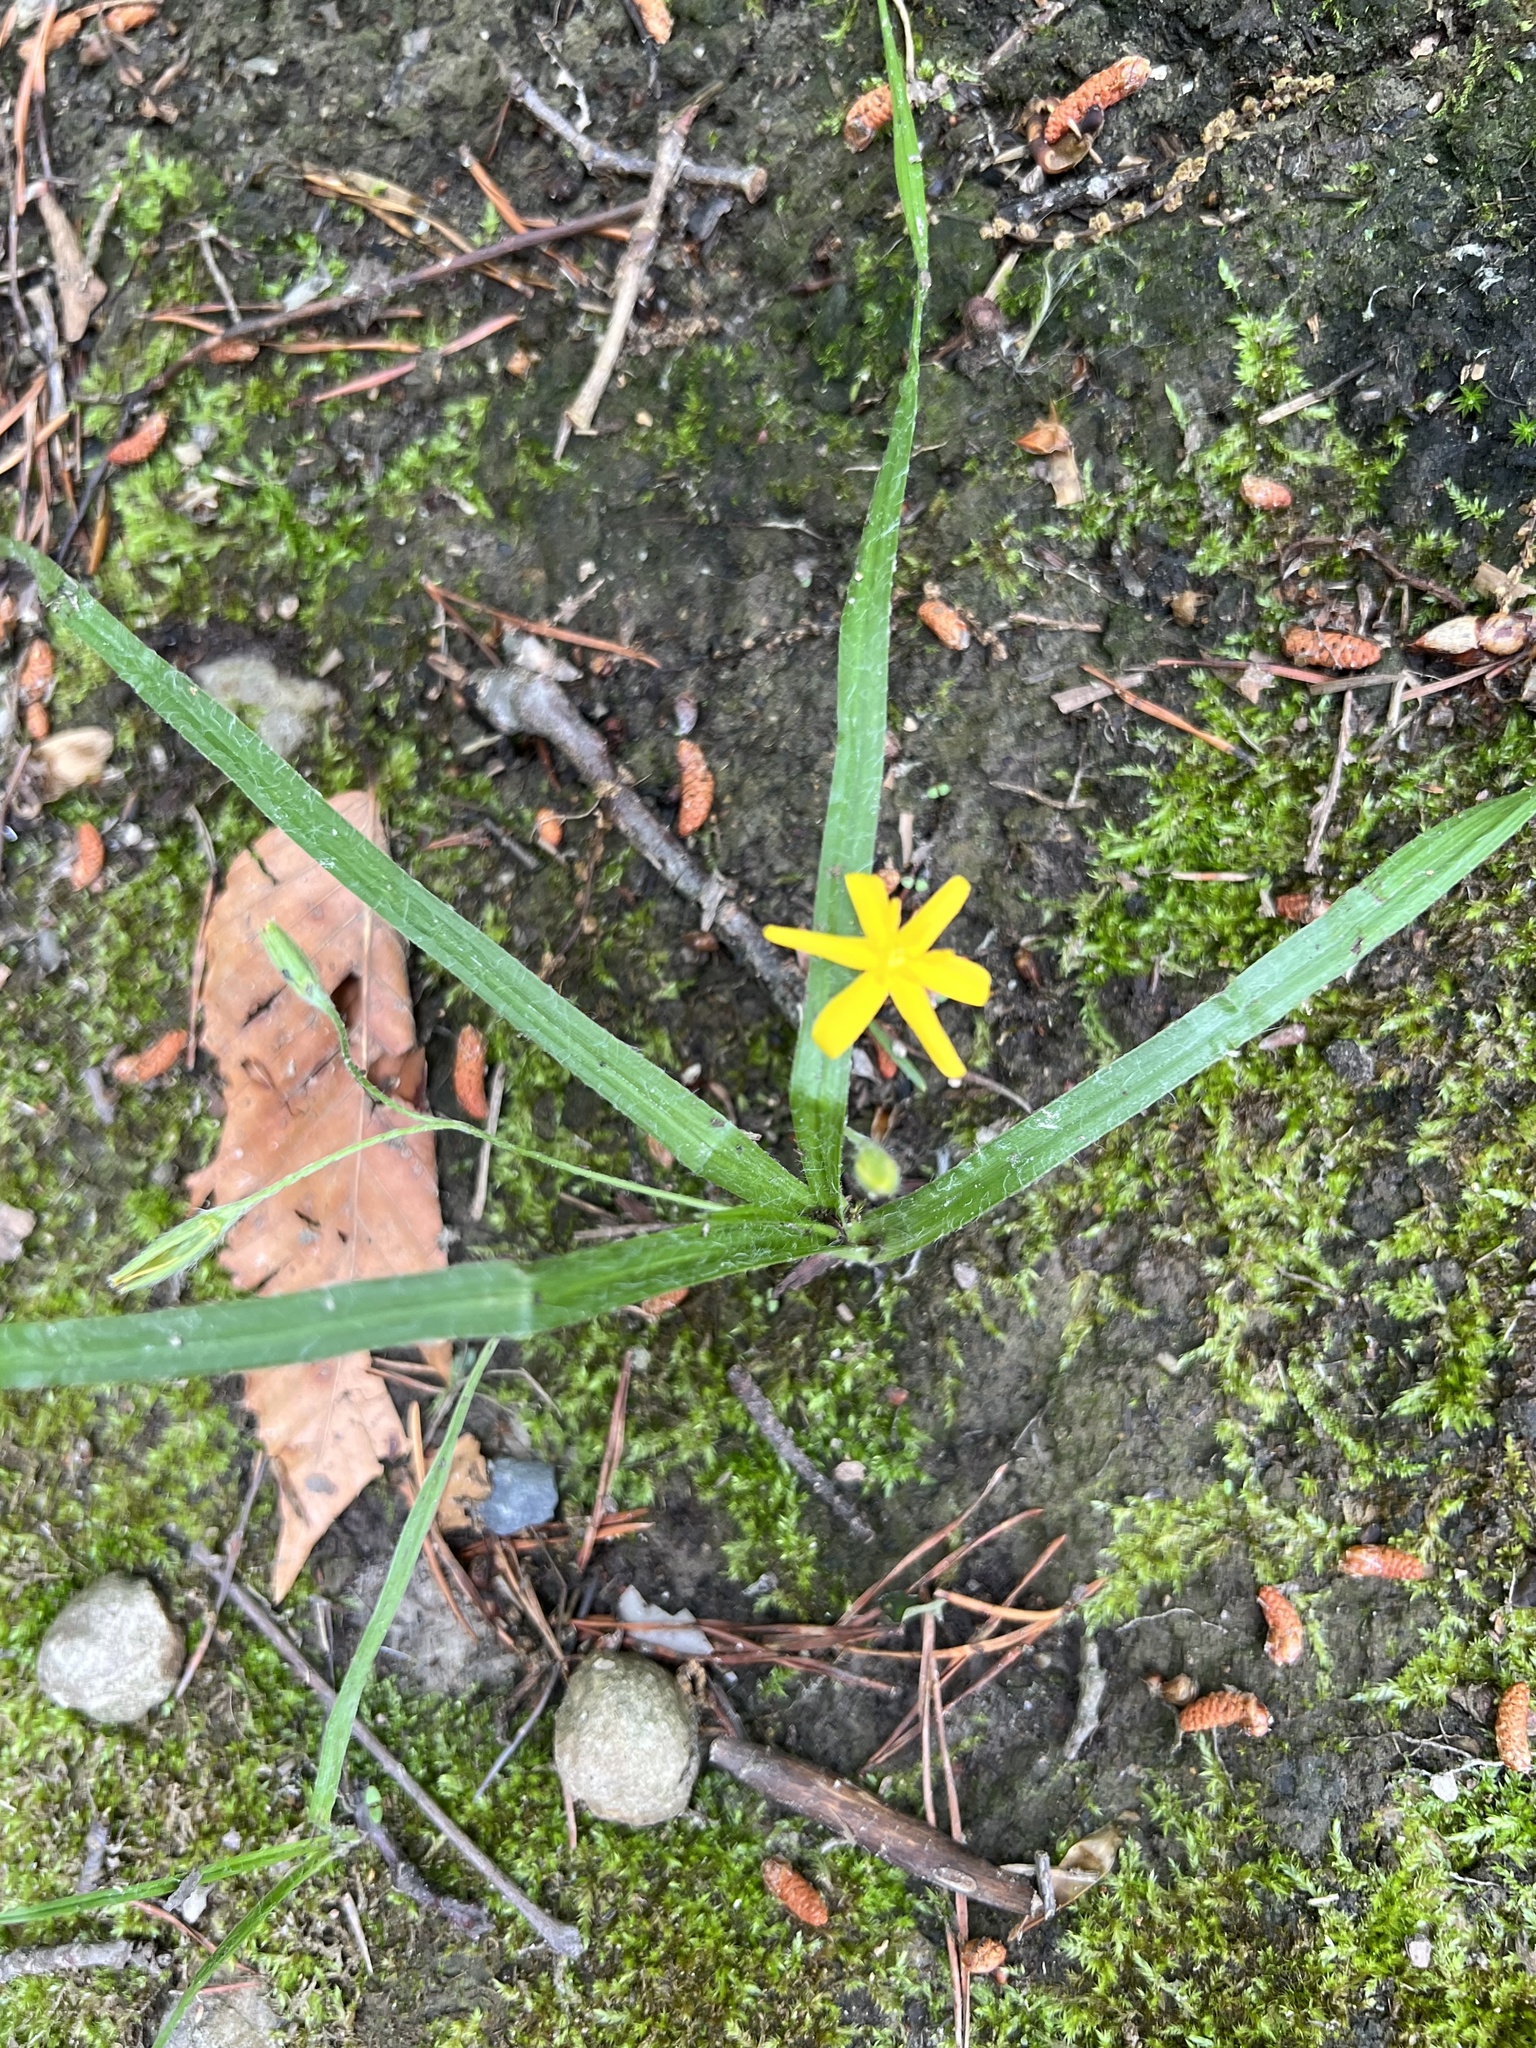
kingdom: Plantae
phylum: Tracheophyta
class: Liliopsida
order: Asparagales
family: Hypoxidaceae
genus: Hypoxis
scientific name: Hypoxis hirsuta
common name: Common goldstar
